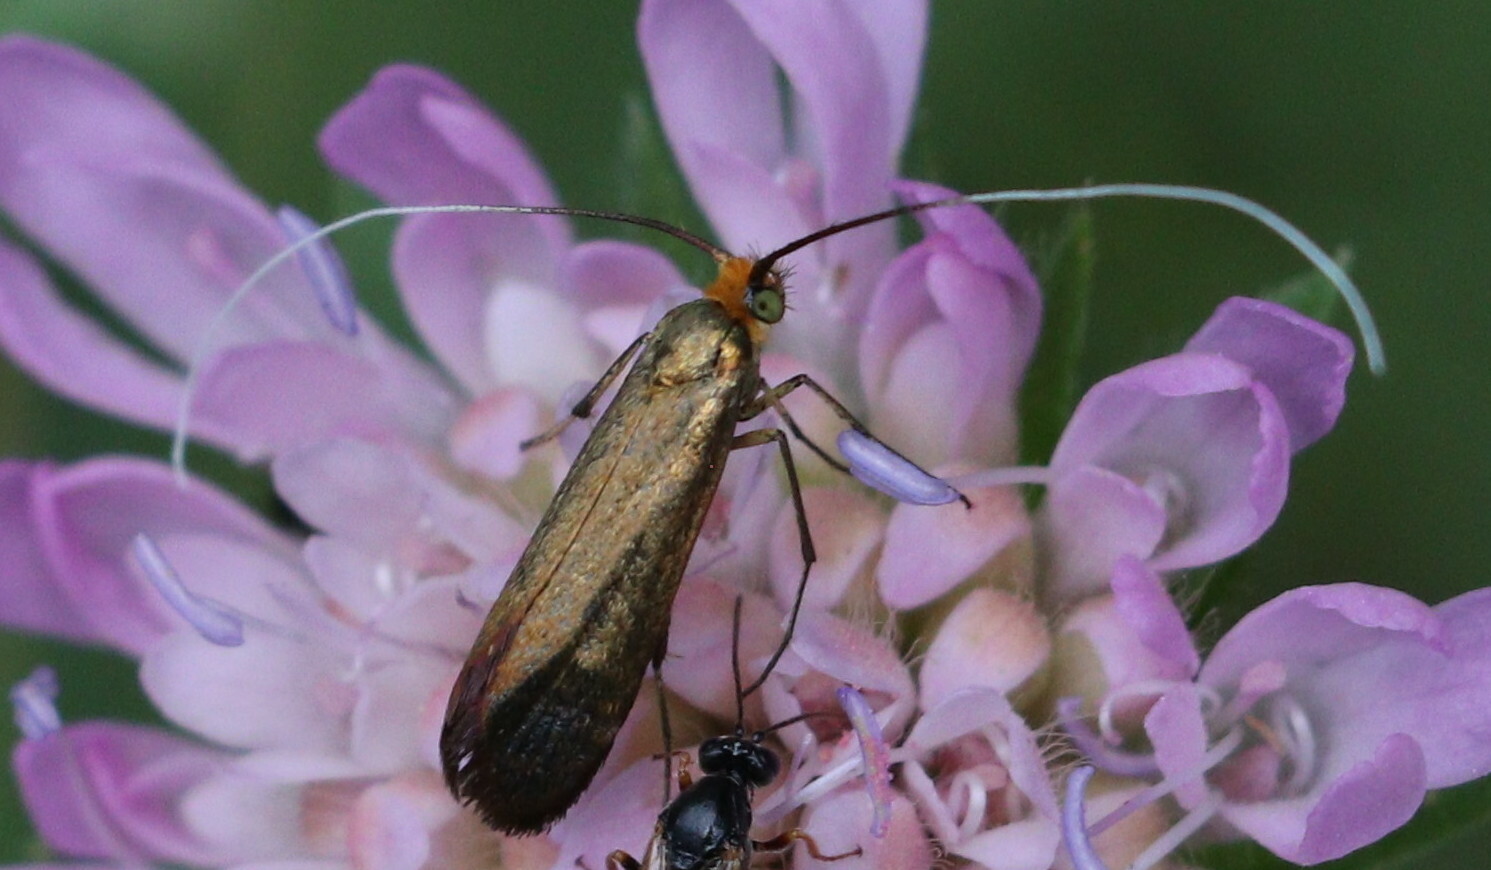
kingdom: Animalia
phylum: Arthropoda
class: Insecta
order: Lepidoptera
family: Adelidae
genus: Nemophora
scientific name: Nemophora metallica
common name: Brassy long-horn
